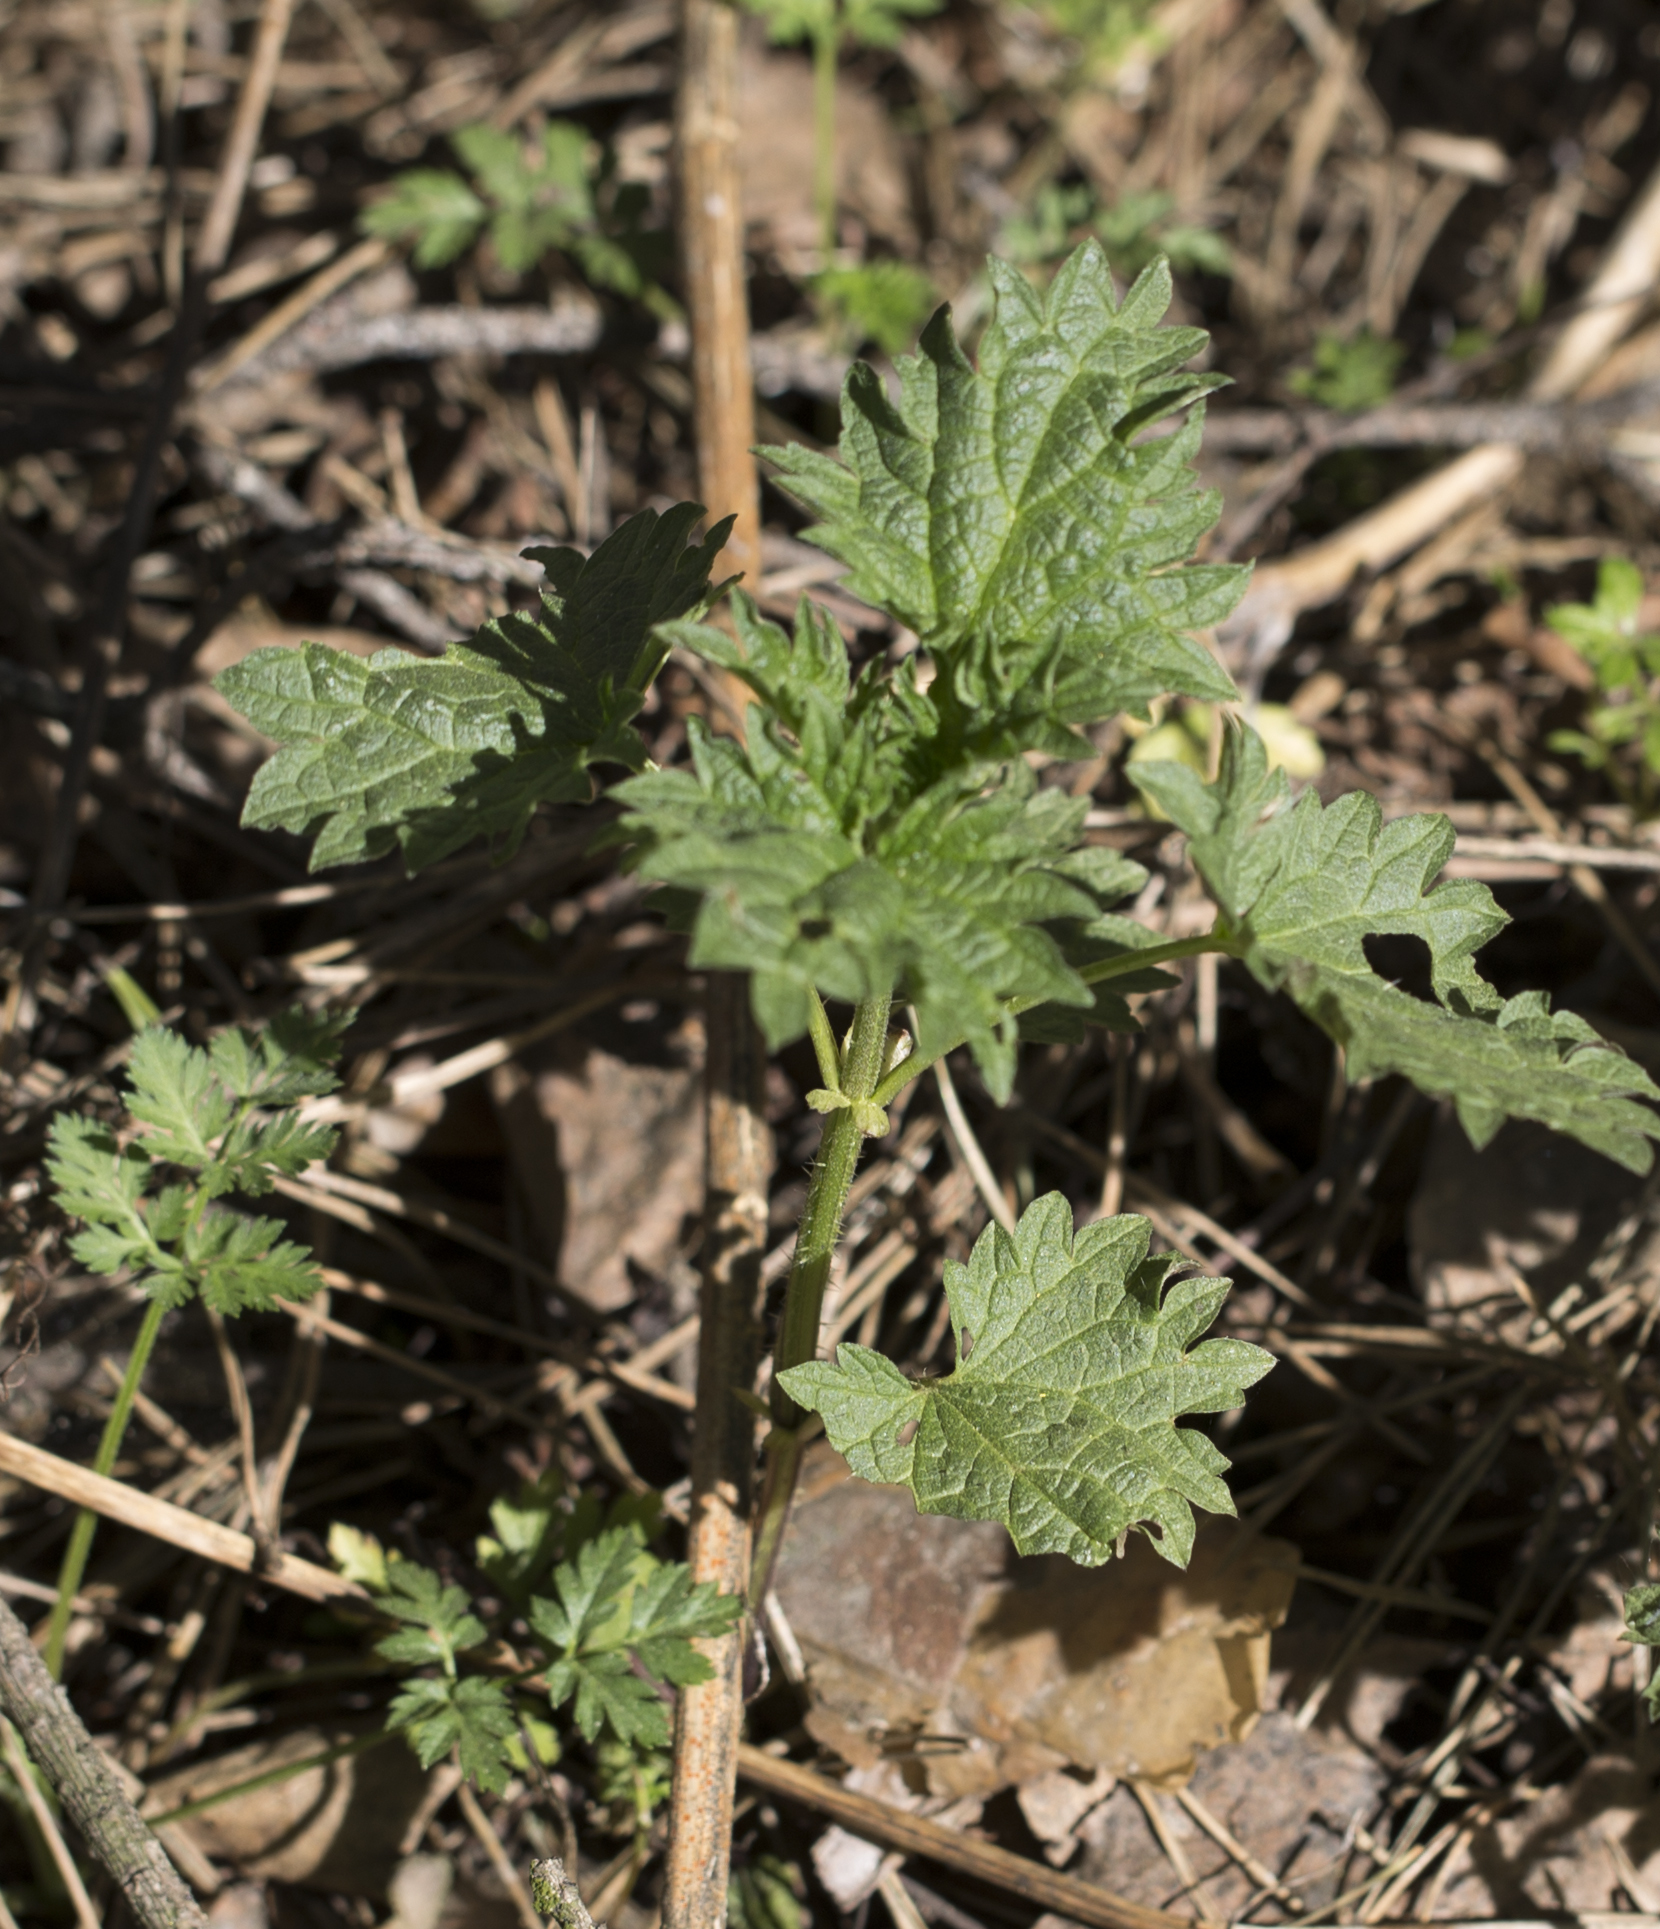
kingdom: Plantae
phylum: Tracheophyta
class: Magnoliopsida
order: Rosales
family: Urticaceae
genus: Urtica
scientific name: Urtica dioica
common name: Common nettle
